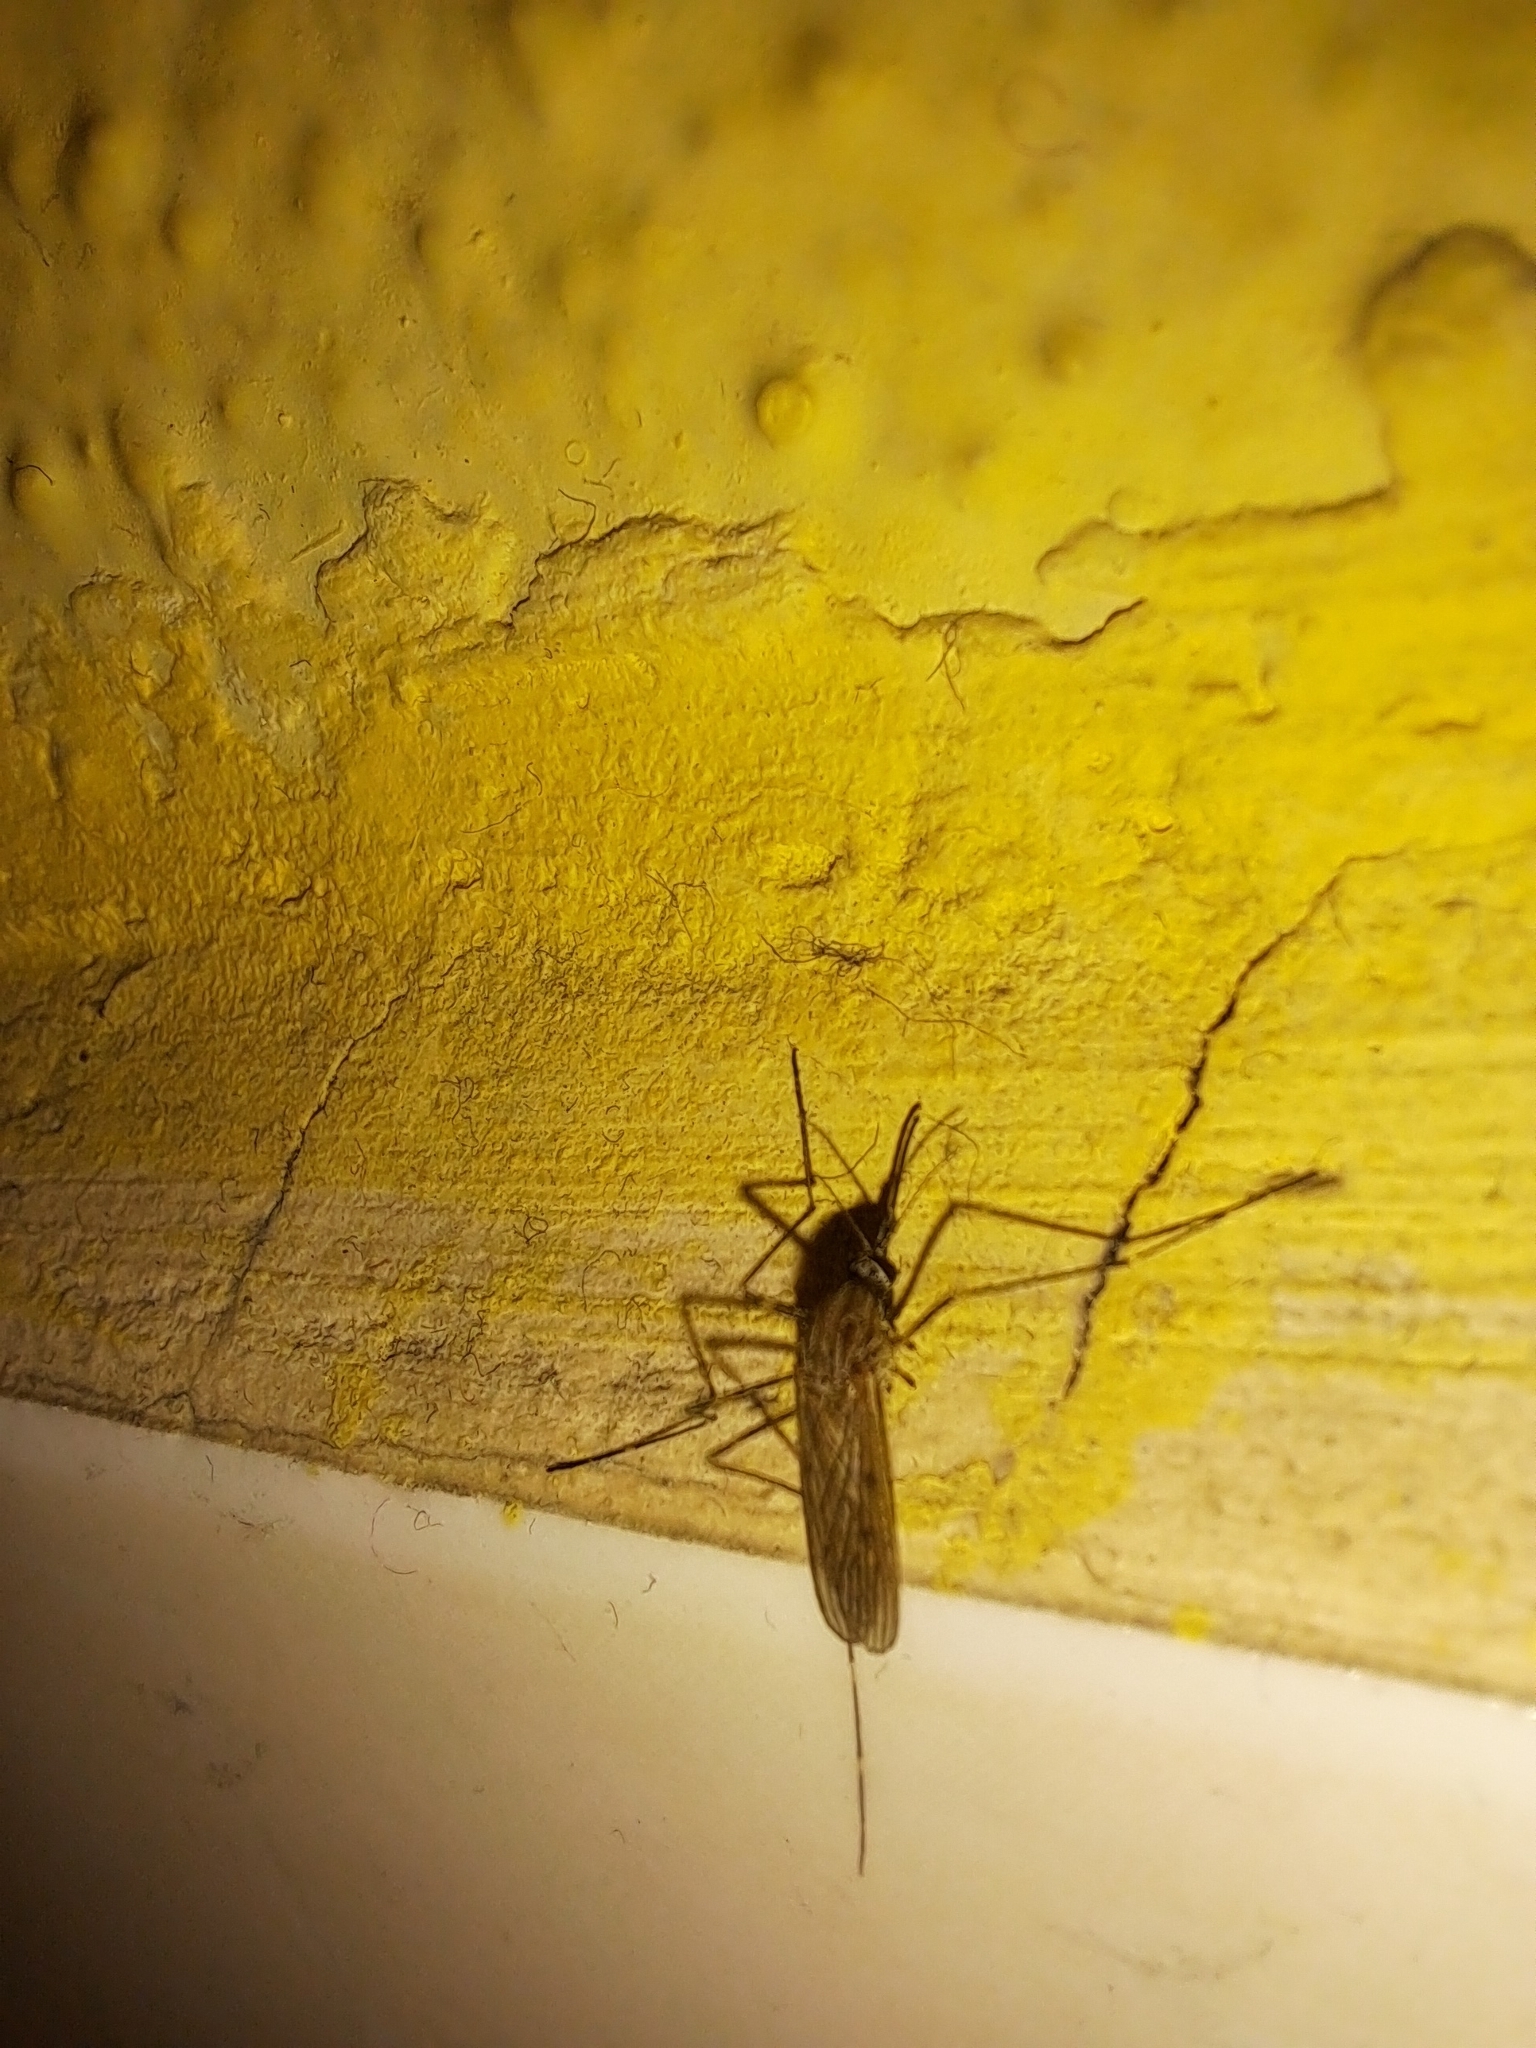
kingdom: Animalia
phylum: Arthropoda
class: Insecta
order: Diptera
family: Culicidae
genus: Culiseta
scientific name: Culiseta longiareolata
